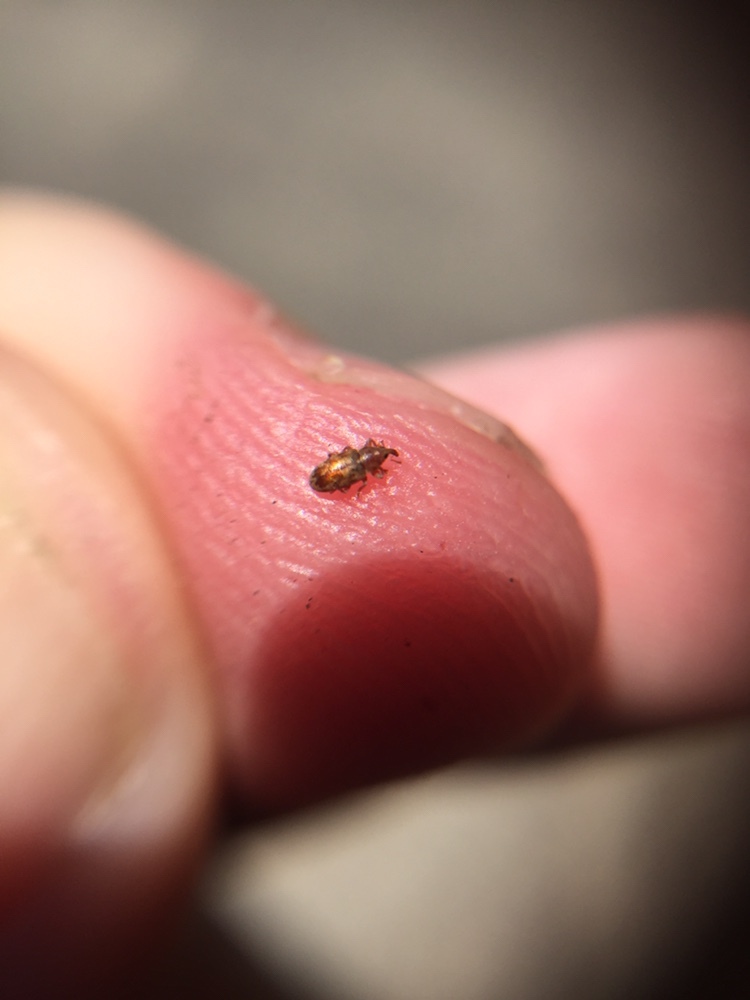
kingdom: Animalia
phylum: Arthropoda
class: Insecta
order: Coleoptera
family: Curculionidae
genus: Epamoebus
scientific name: Epamoebus ziczac
